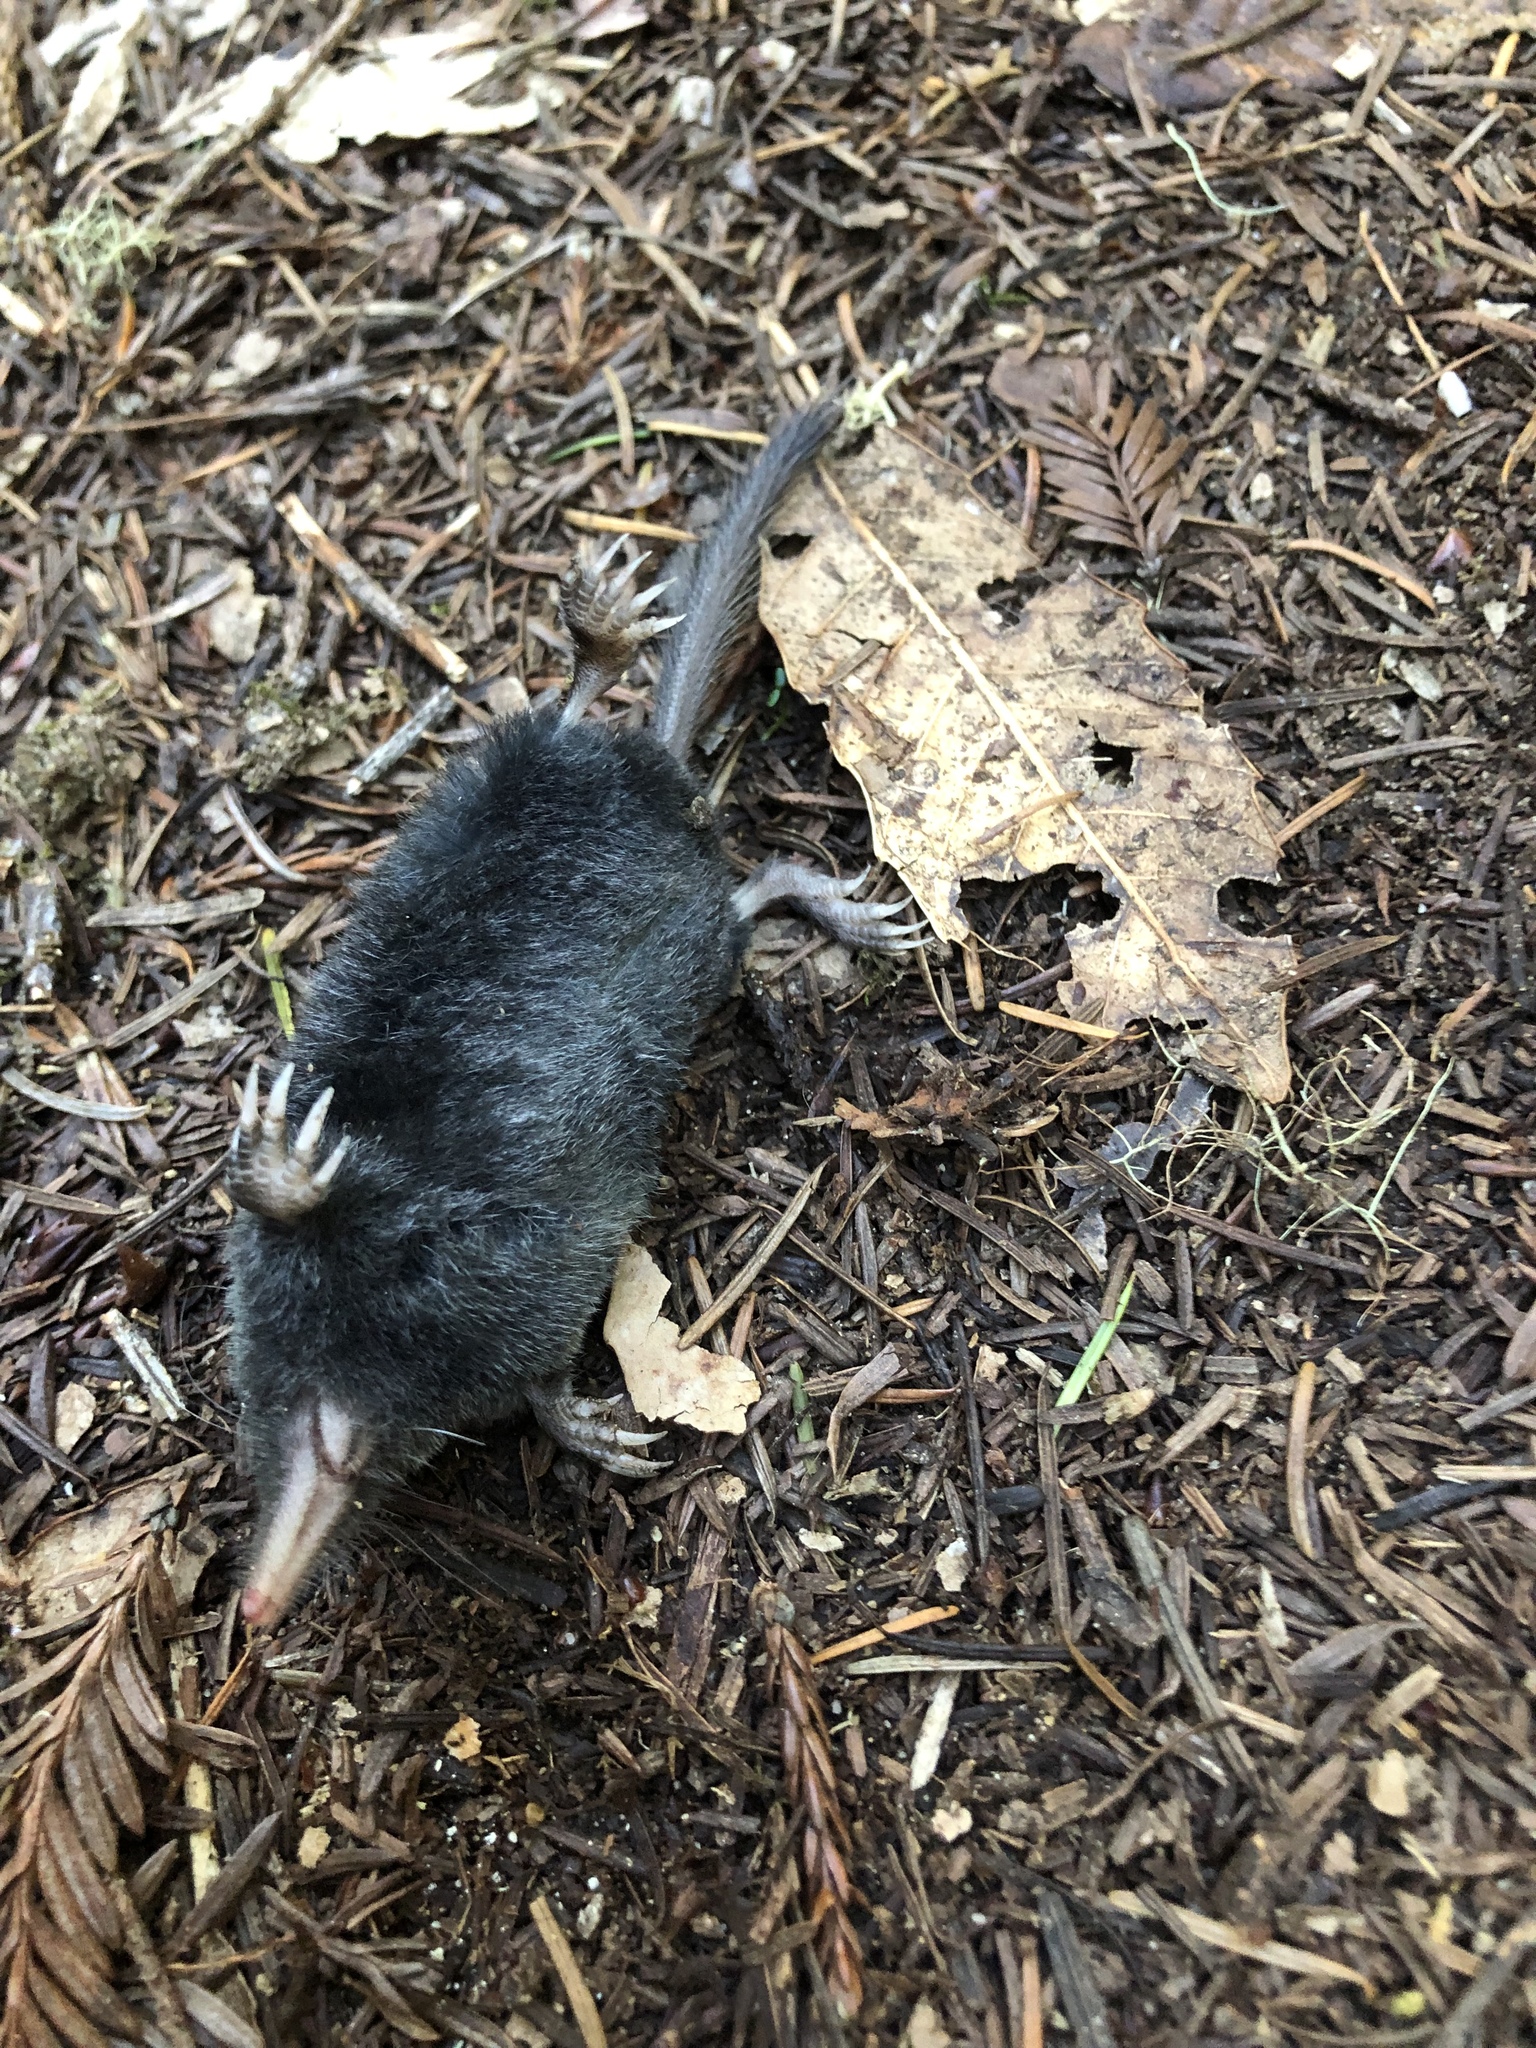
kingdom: Animalia
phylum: Chordata
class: Mammalia
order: Soricomorpha
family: Talpidae
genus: Neurotrichus
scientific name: Neurotrichus gibbsii
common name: American shrew mole
